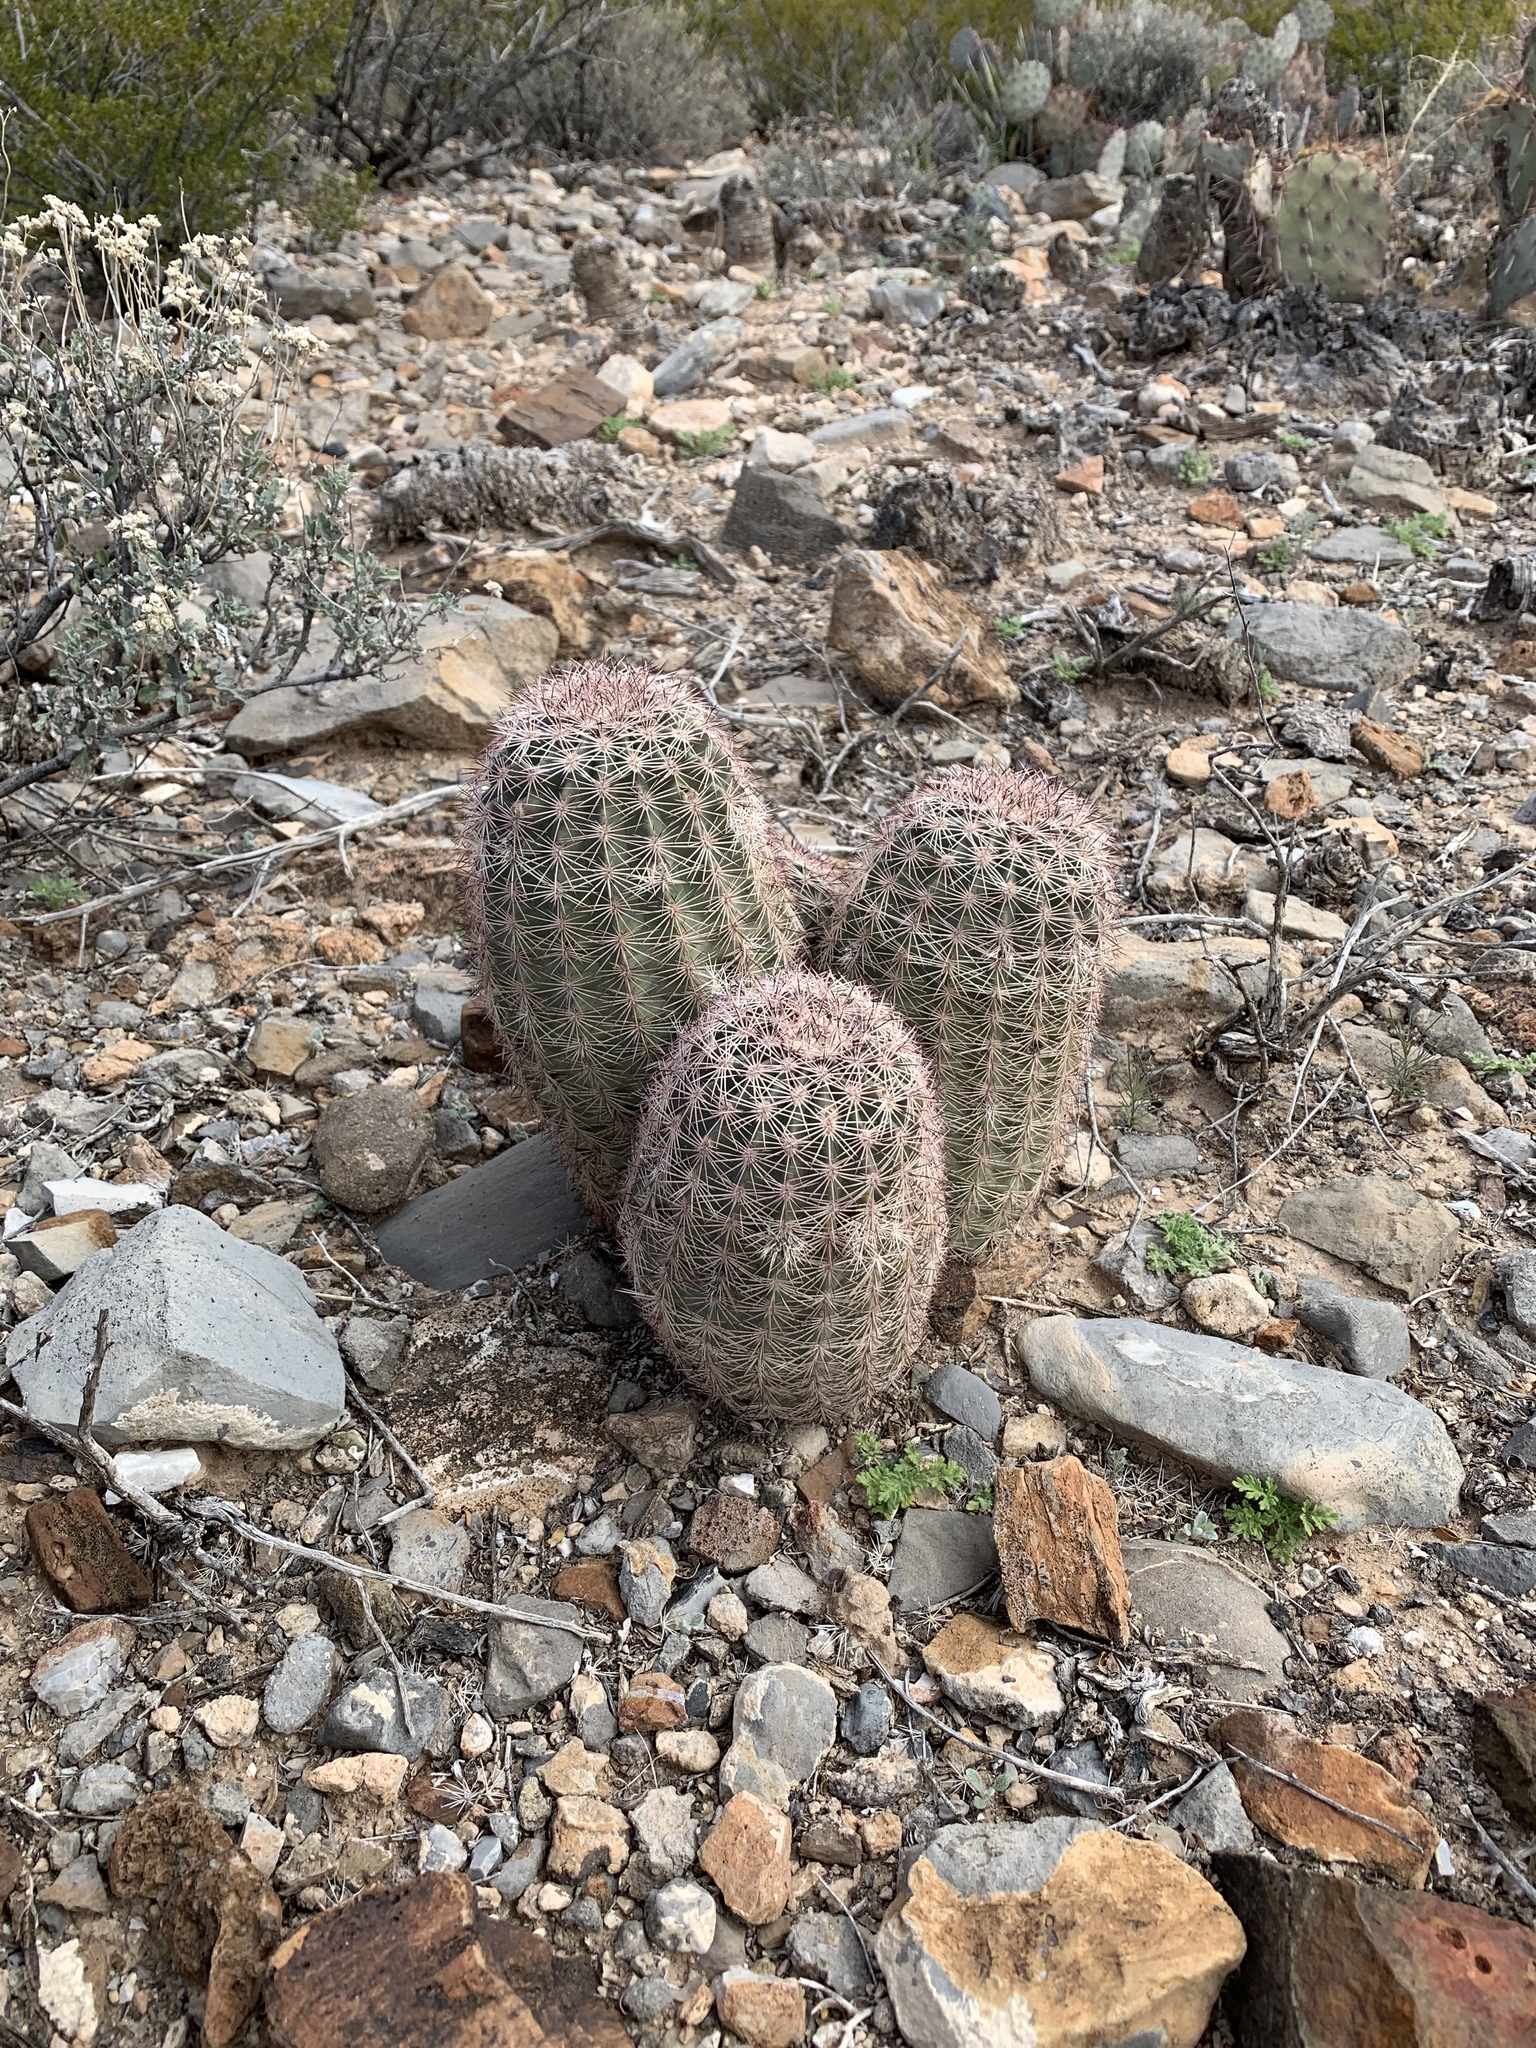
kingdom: Plantae
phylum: Tracheophyta
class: Magnoliopsida
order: Caryophyllales
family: Cactaceae
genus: Echinocereus
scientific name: Echinocereus dasyacanthus
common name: Spiny hedgehog cactus
